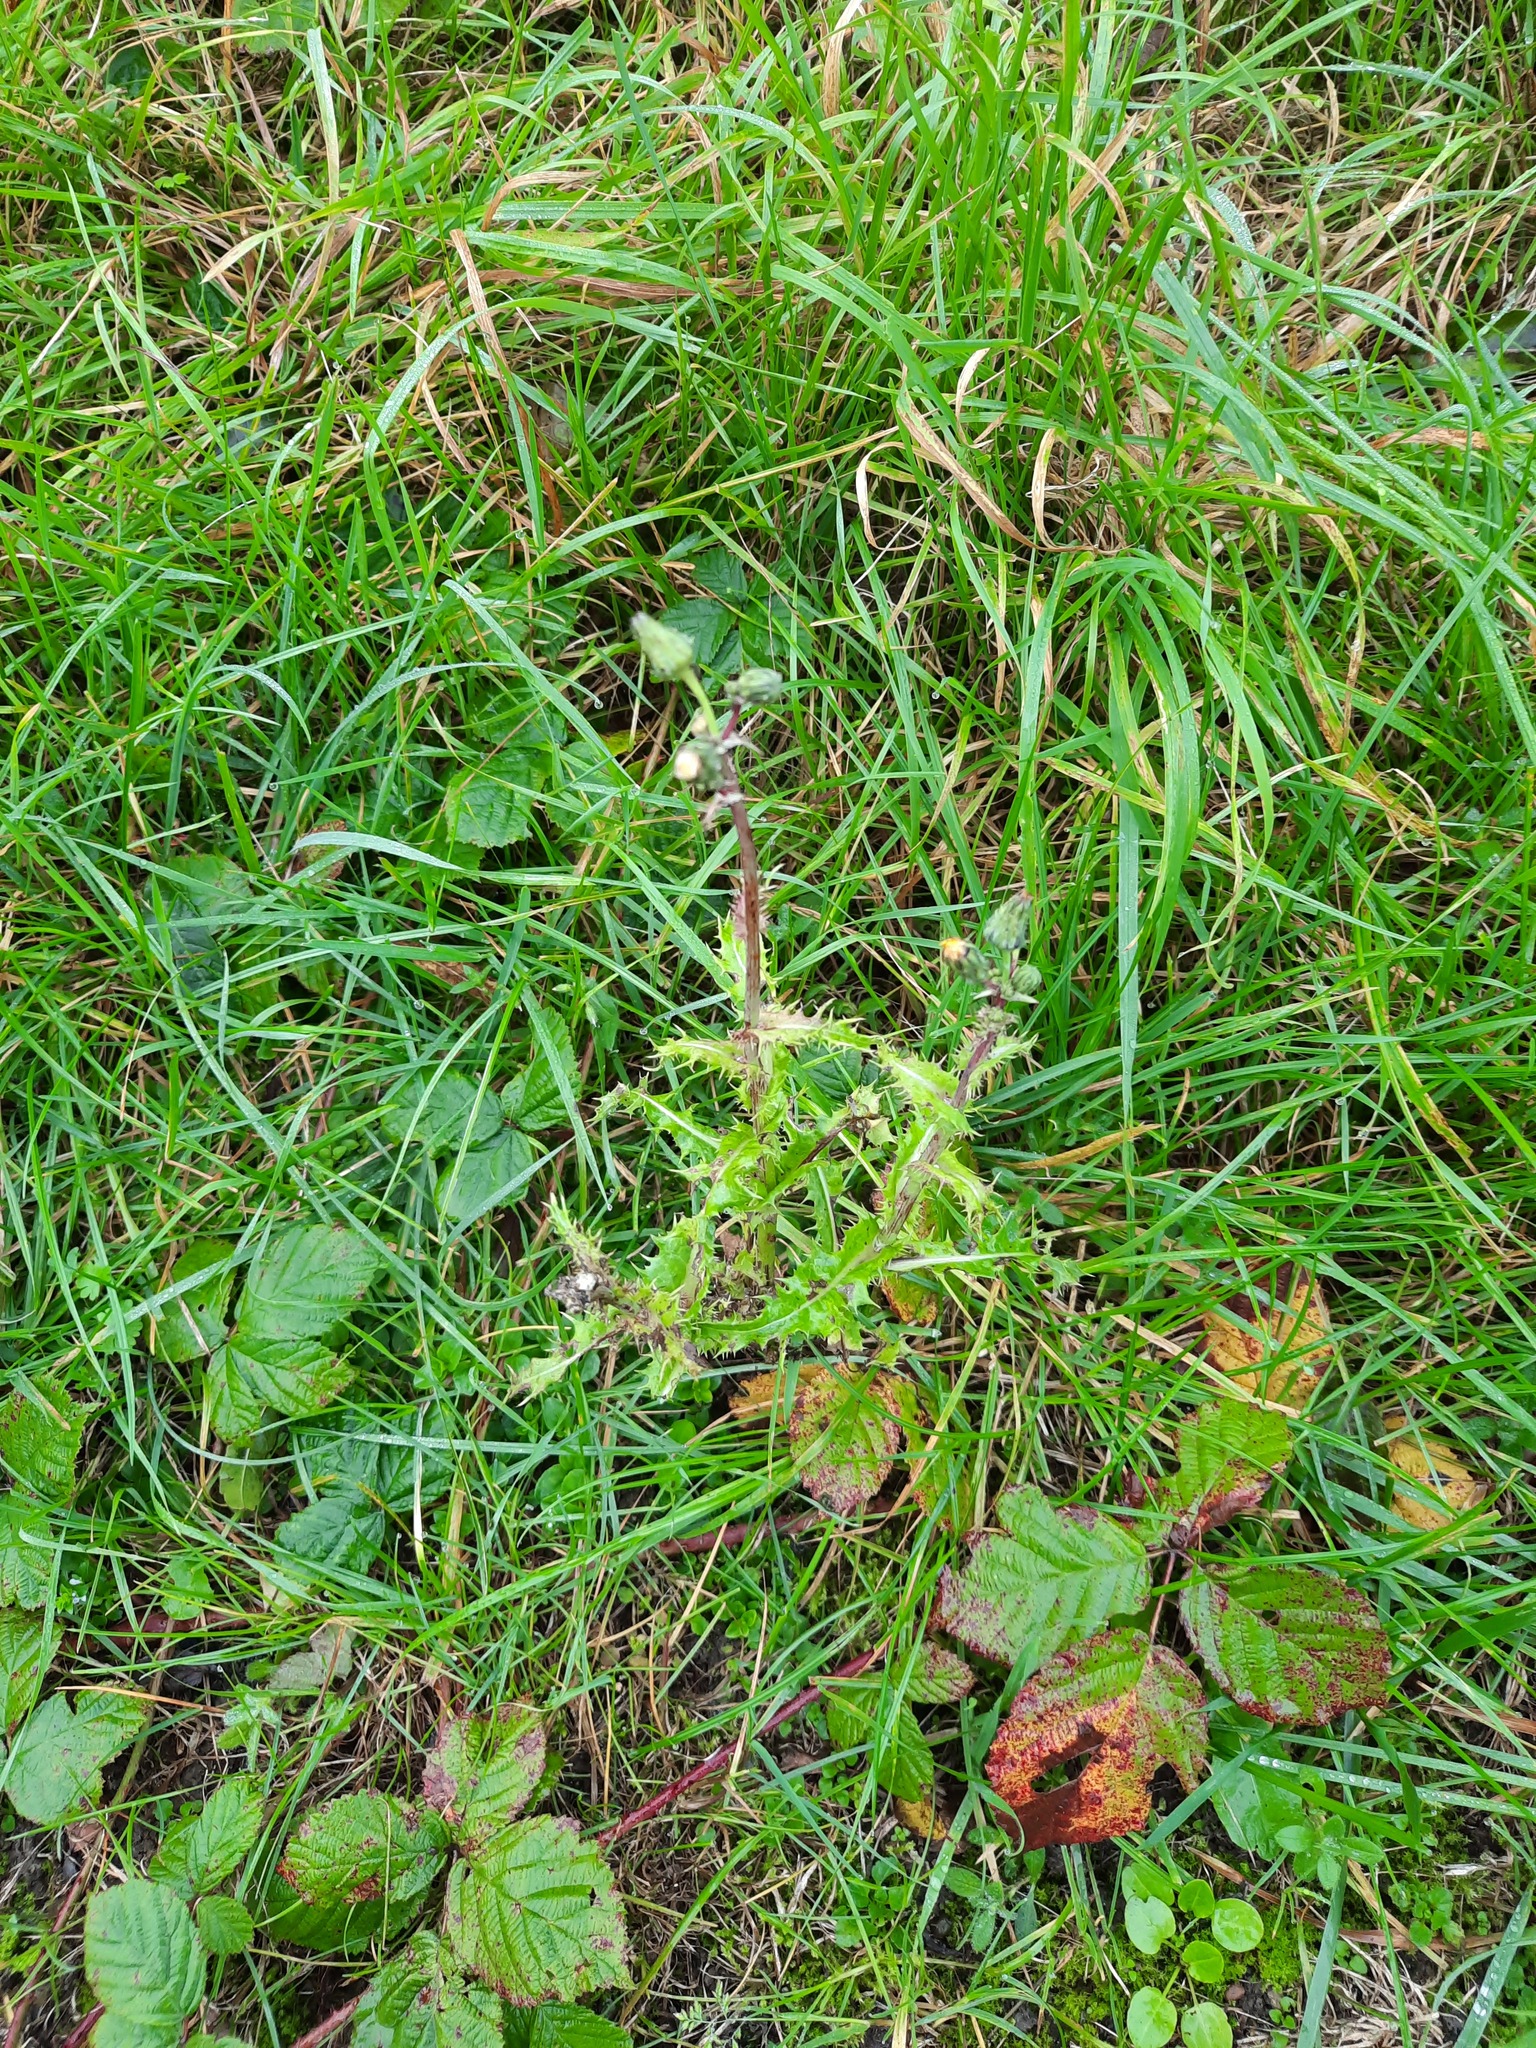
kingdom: Plantae
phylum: Tracheophyta
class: Magnoliopsida
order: Asterales
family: Asteraceae
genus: Sonchus
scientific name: Sonchus asper
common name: Prickly sow-thistle
